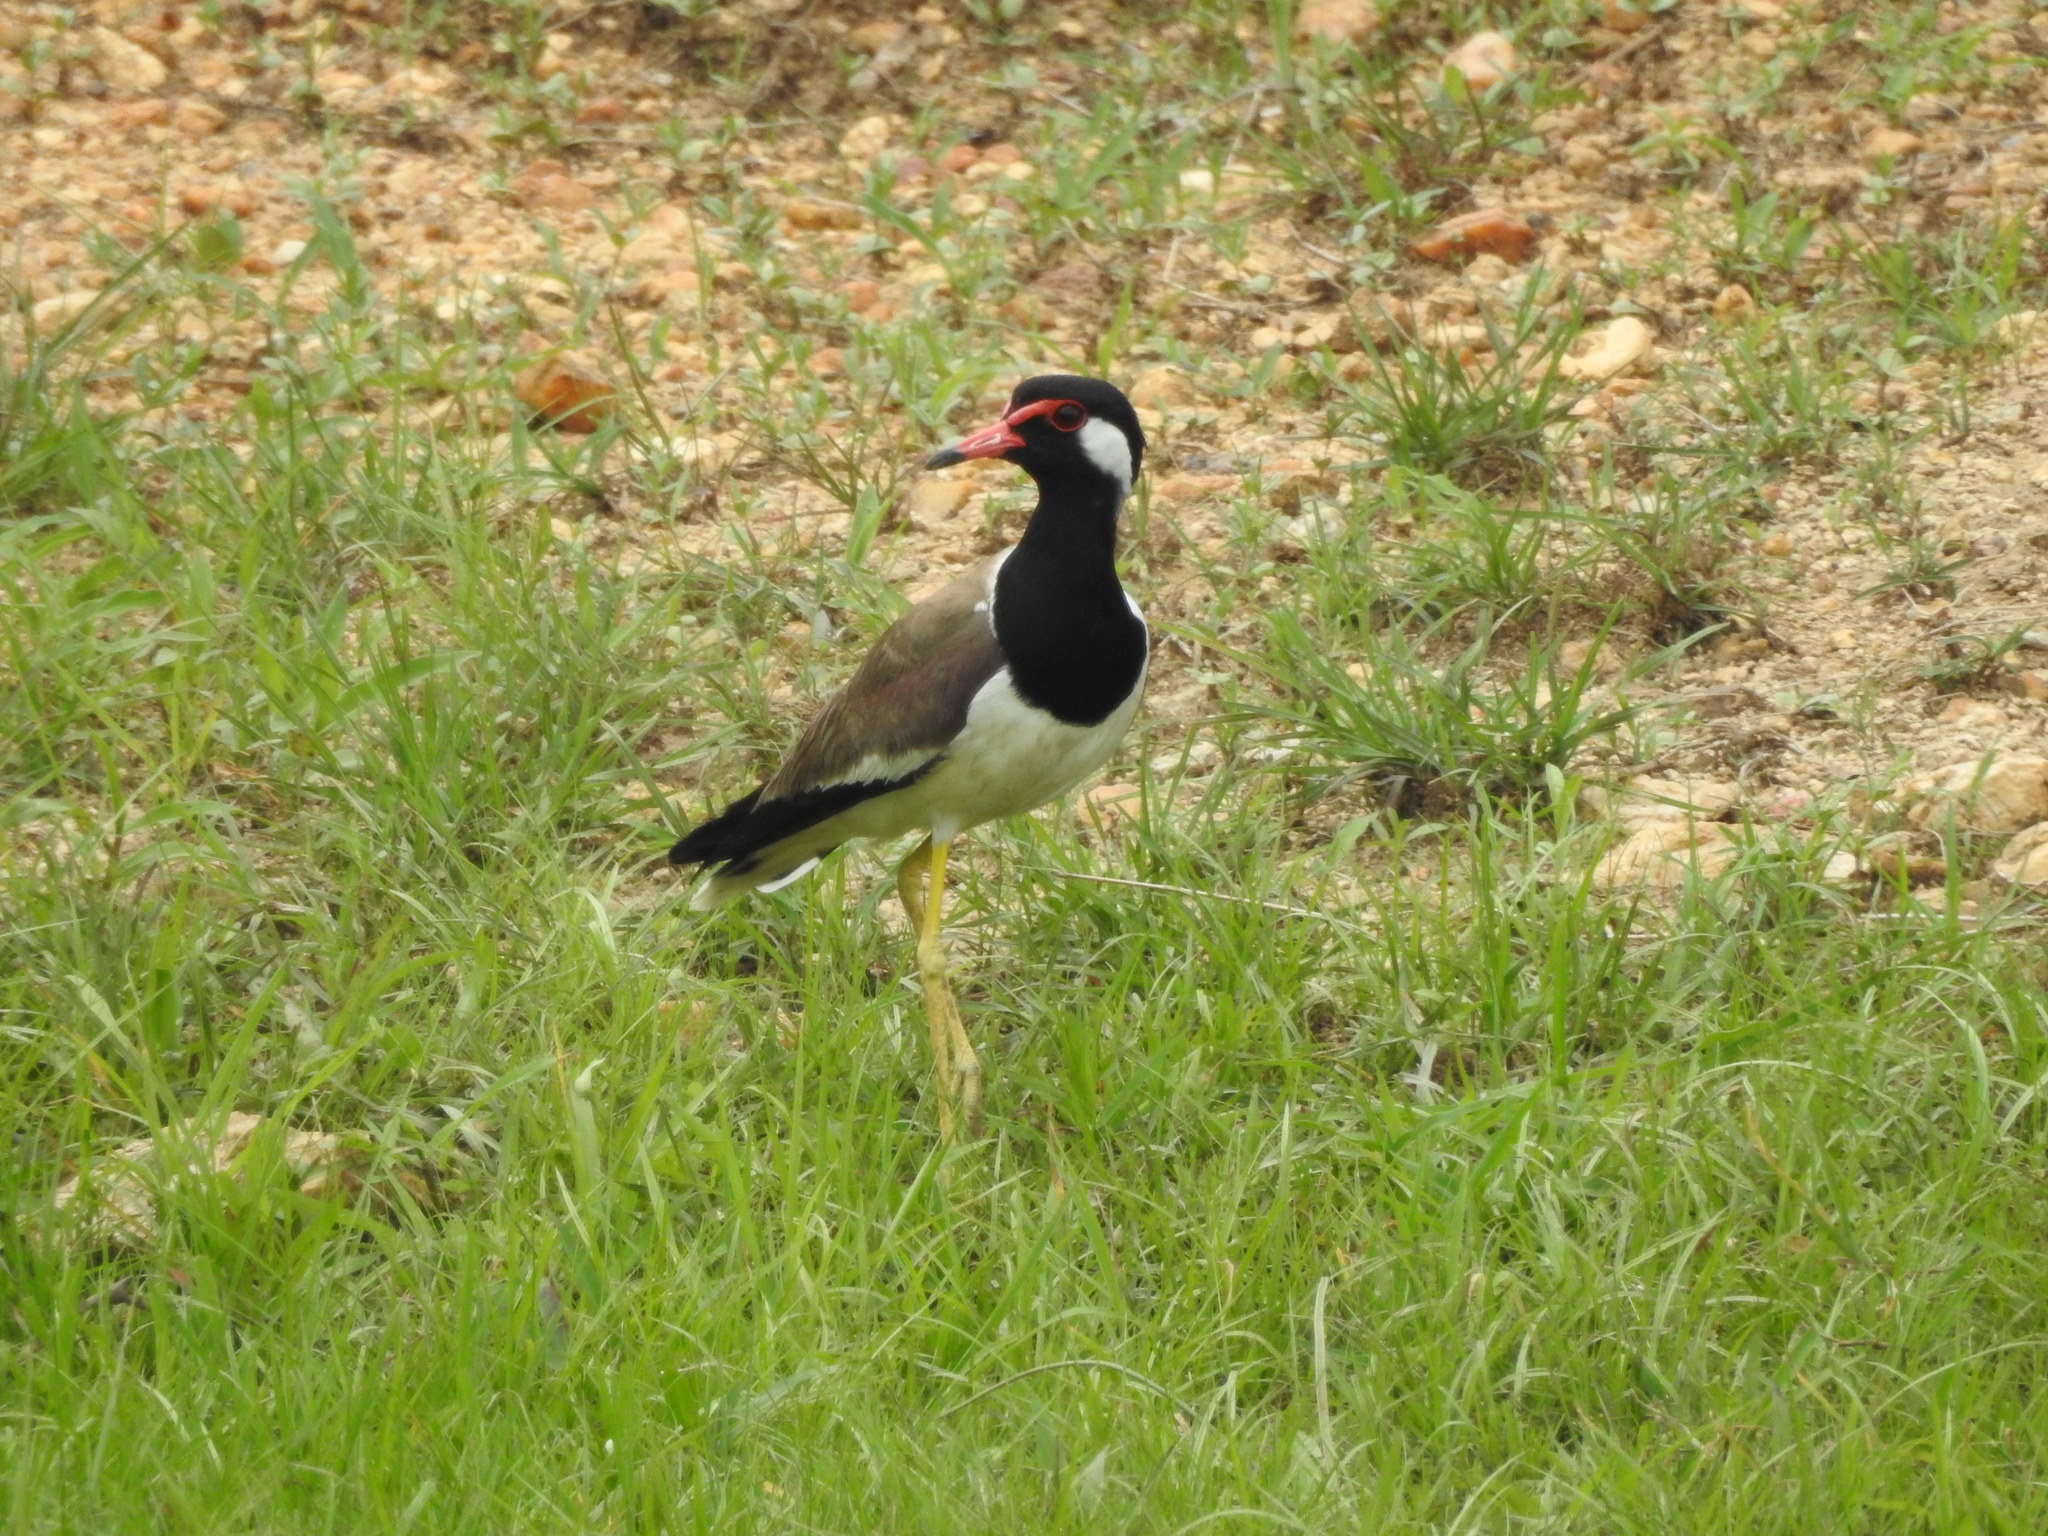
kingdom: Animalia
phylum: Chordata
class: Aves
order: Charadriiformes
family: Charadriidae
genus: Vanellus
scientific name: Vanellus indicus
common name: Red-wattled lapwing
